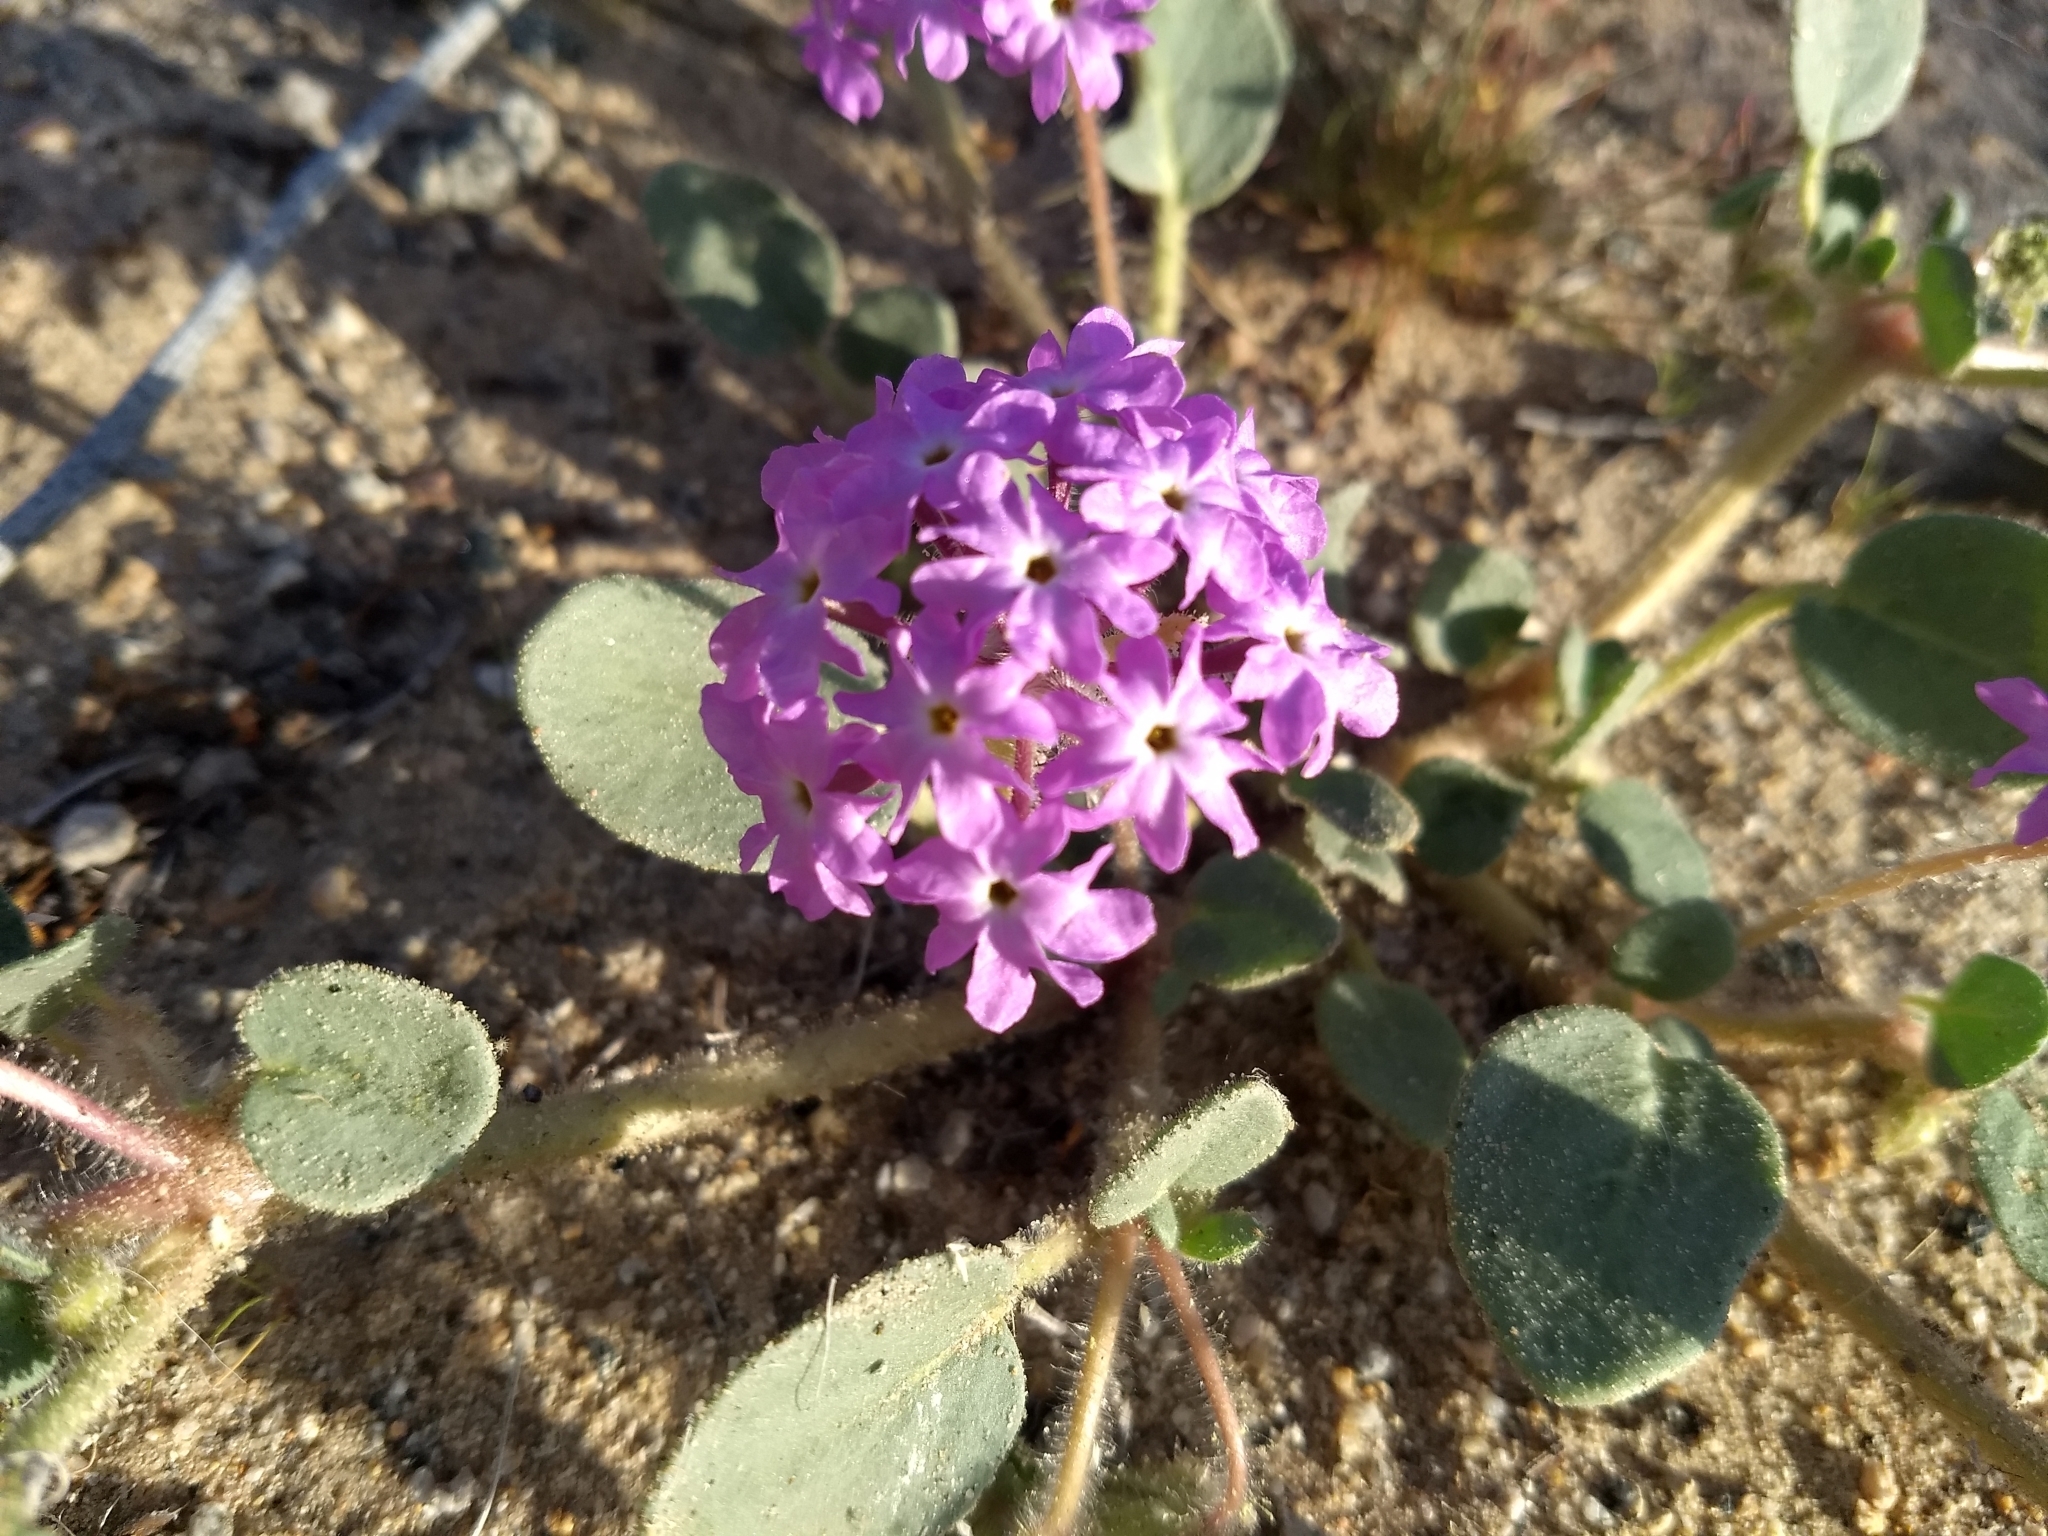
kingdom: Plantae
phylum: Tracheophyta
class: Magnoliopsida
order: Caryophyllales
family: Nyctaginaceae
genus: Abronia
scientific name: Abronia villosa
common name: Desert sand-verbena
